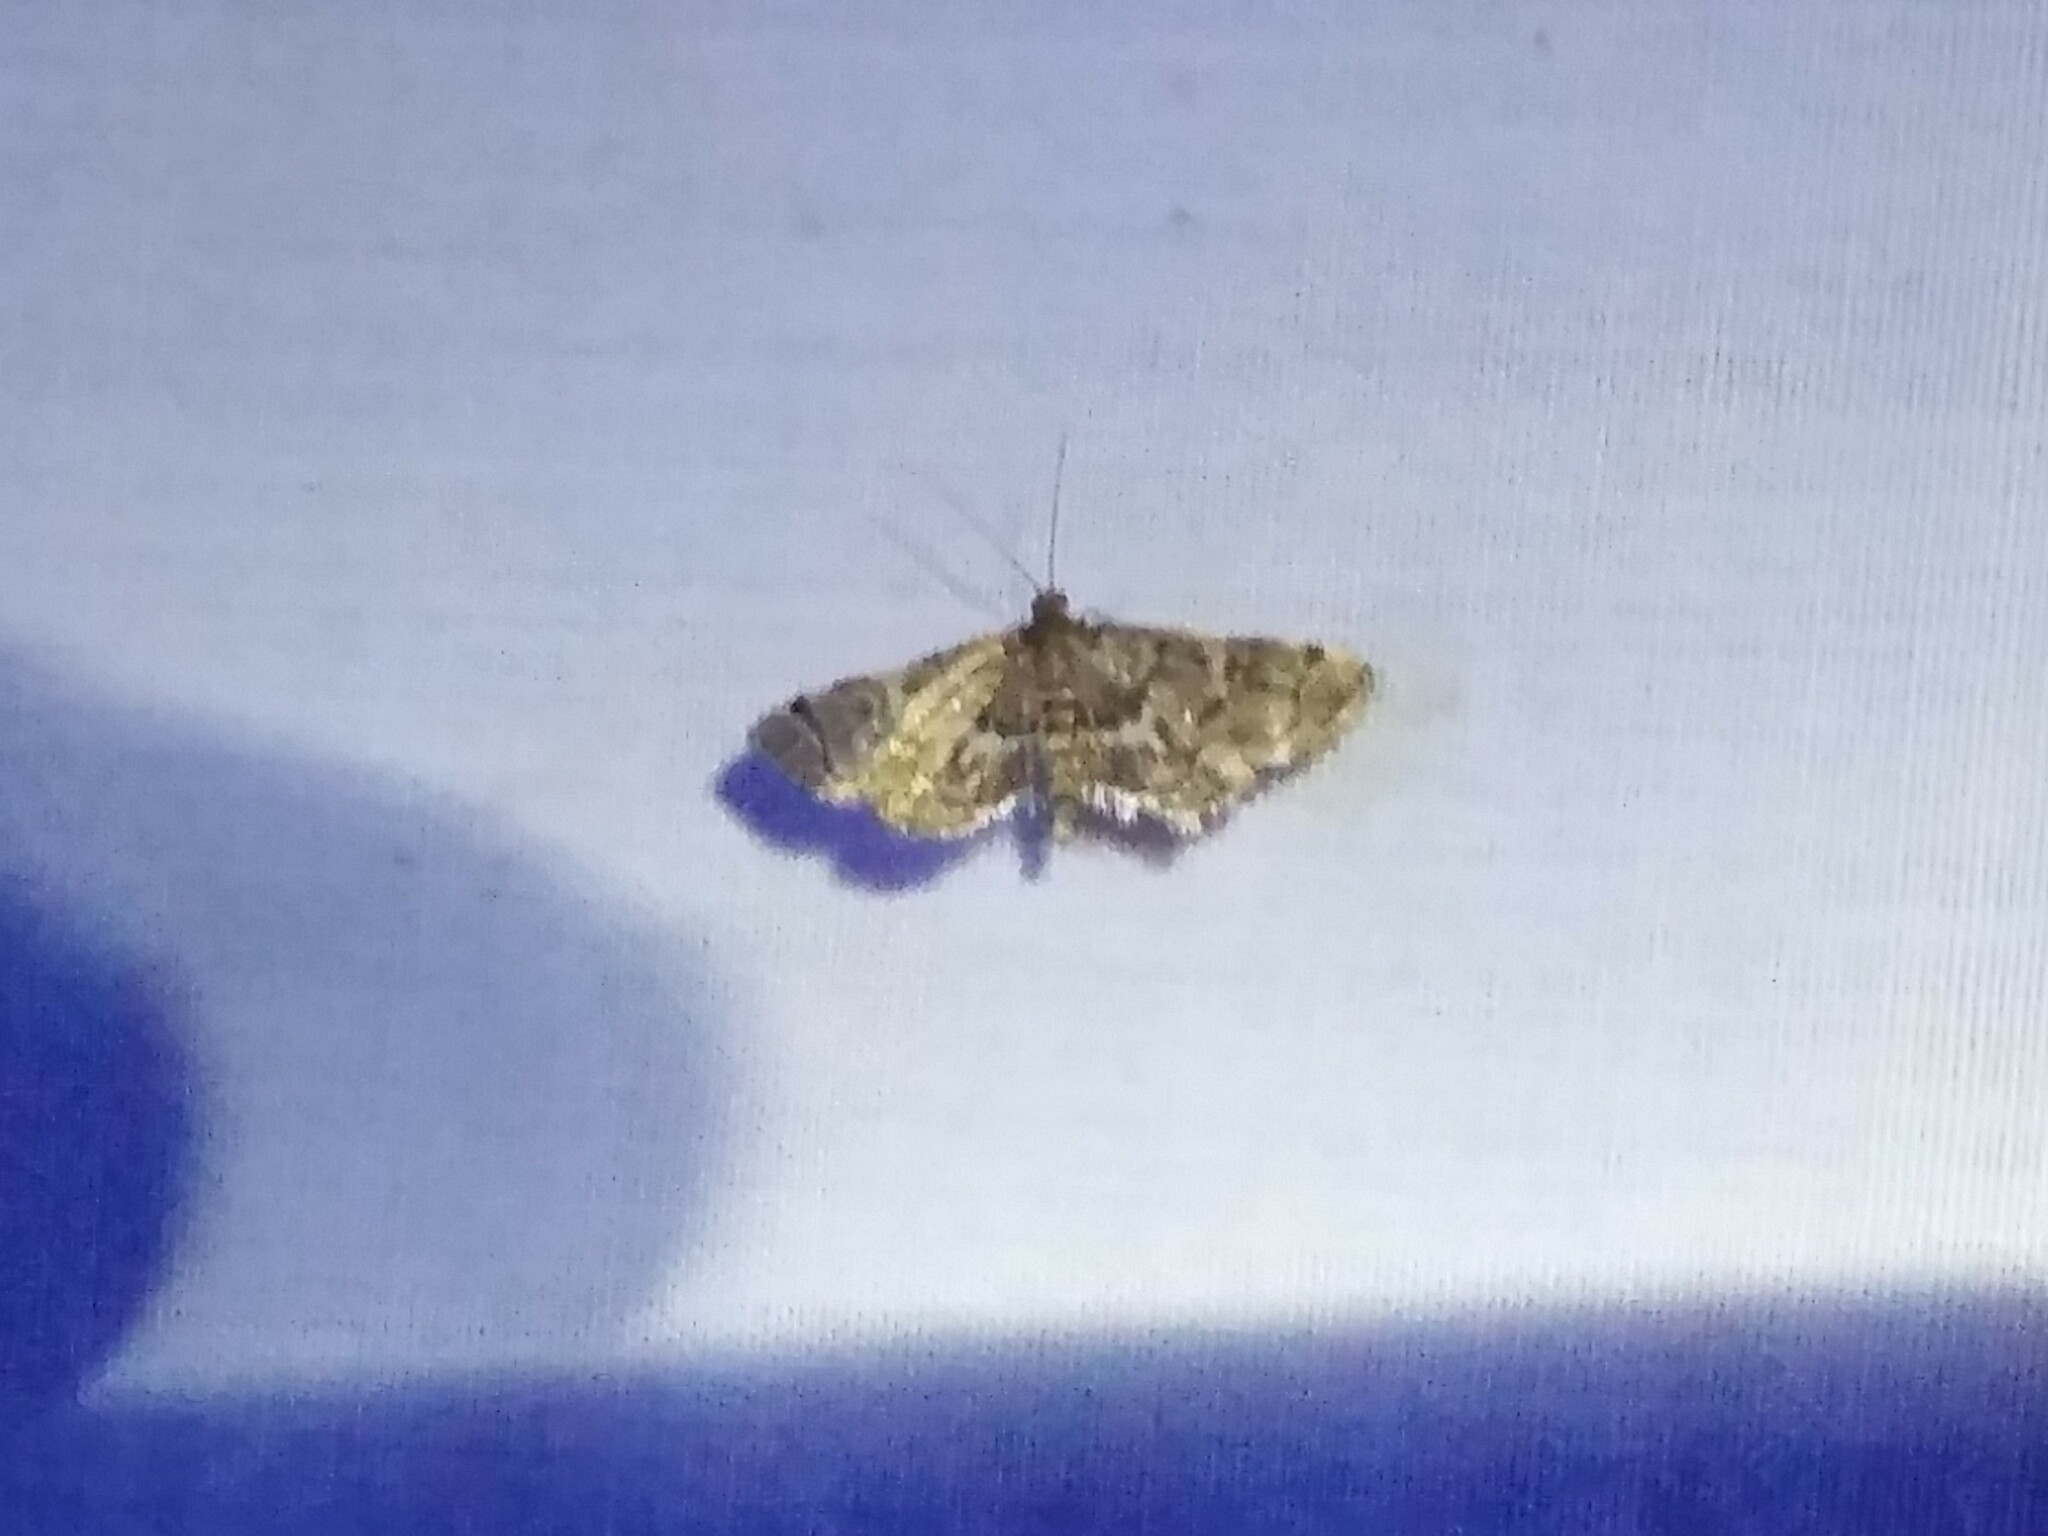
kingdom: Animalia
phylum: Arthropoda
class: Insecta
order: Lepidoptera
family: Crambidae
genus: Anageshna
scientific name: Anageshna primordialis
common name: Yellow-spotted webworm moth
